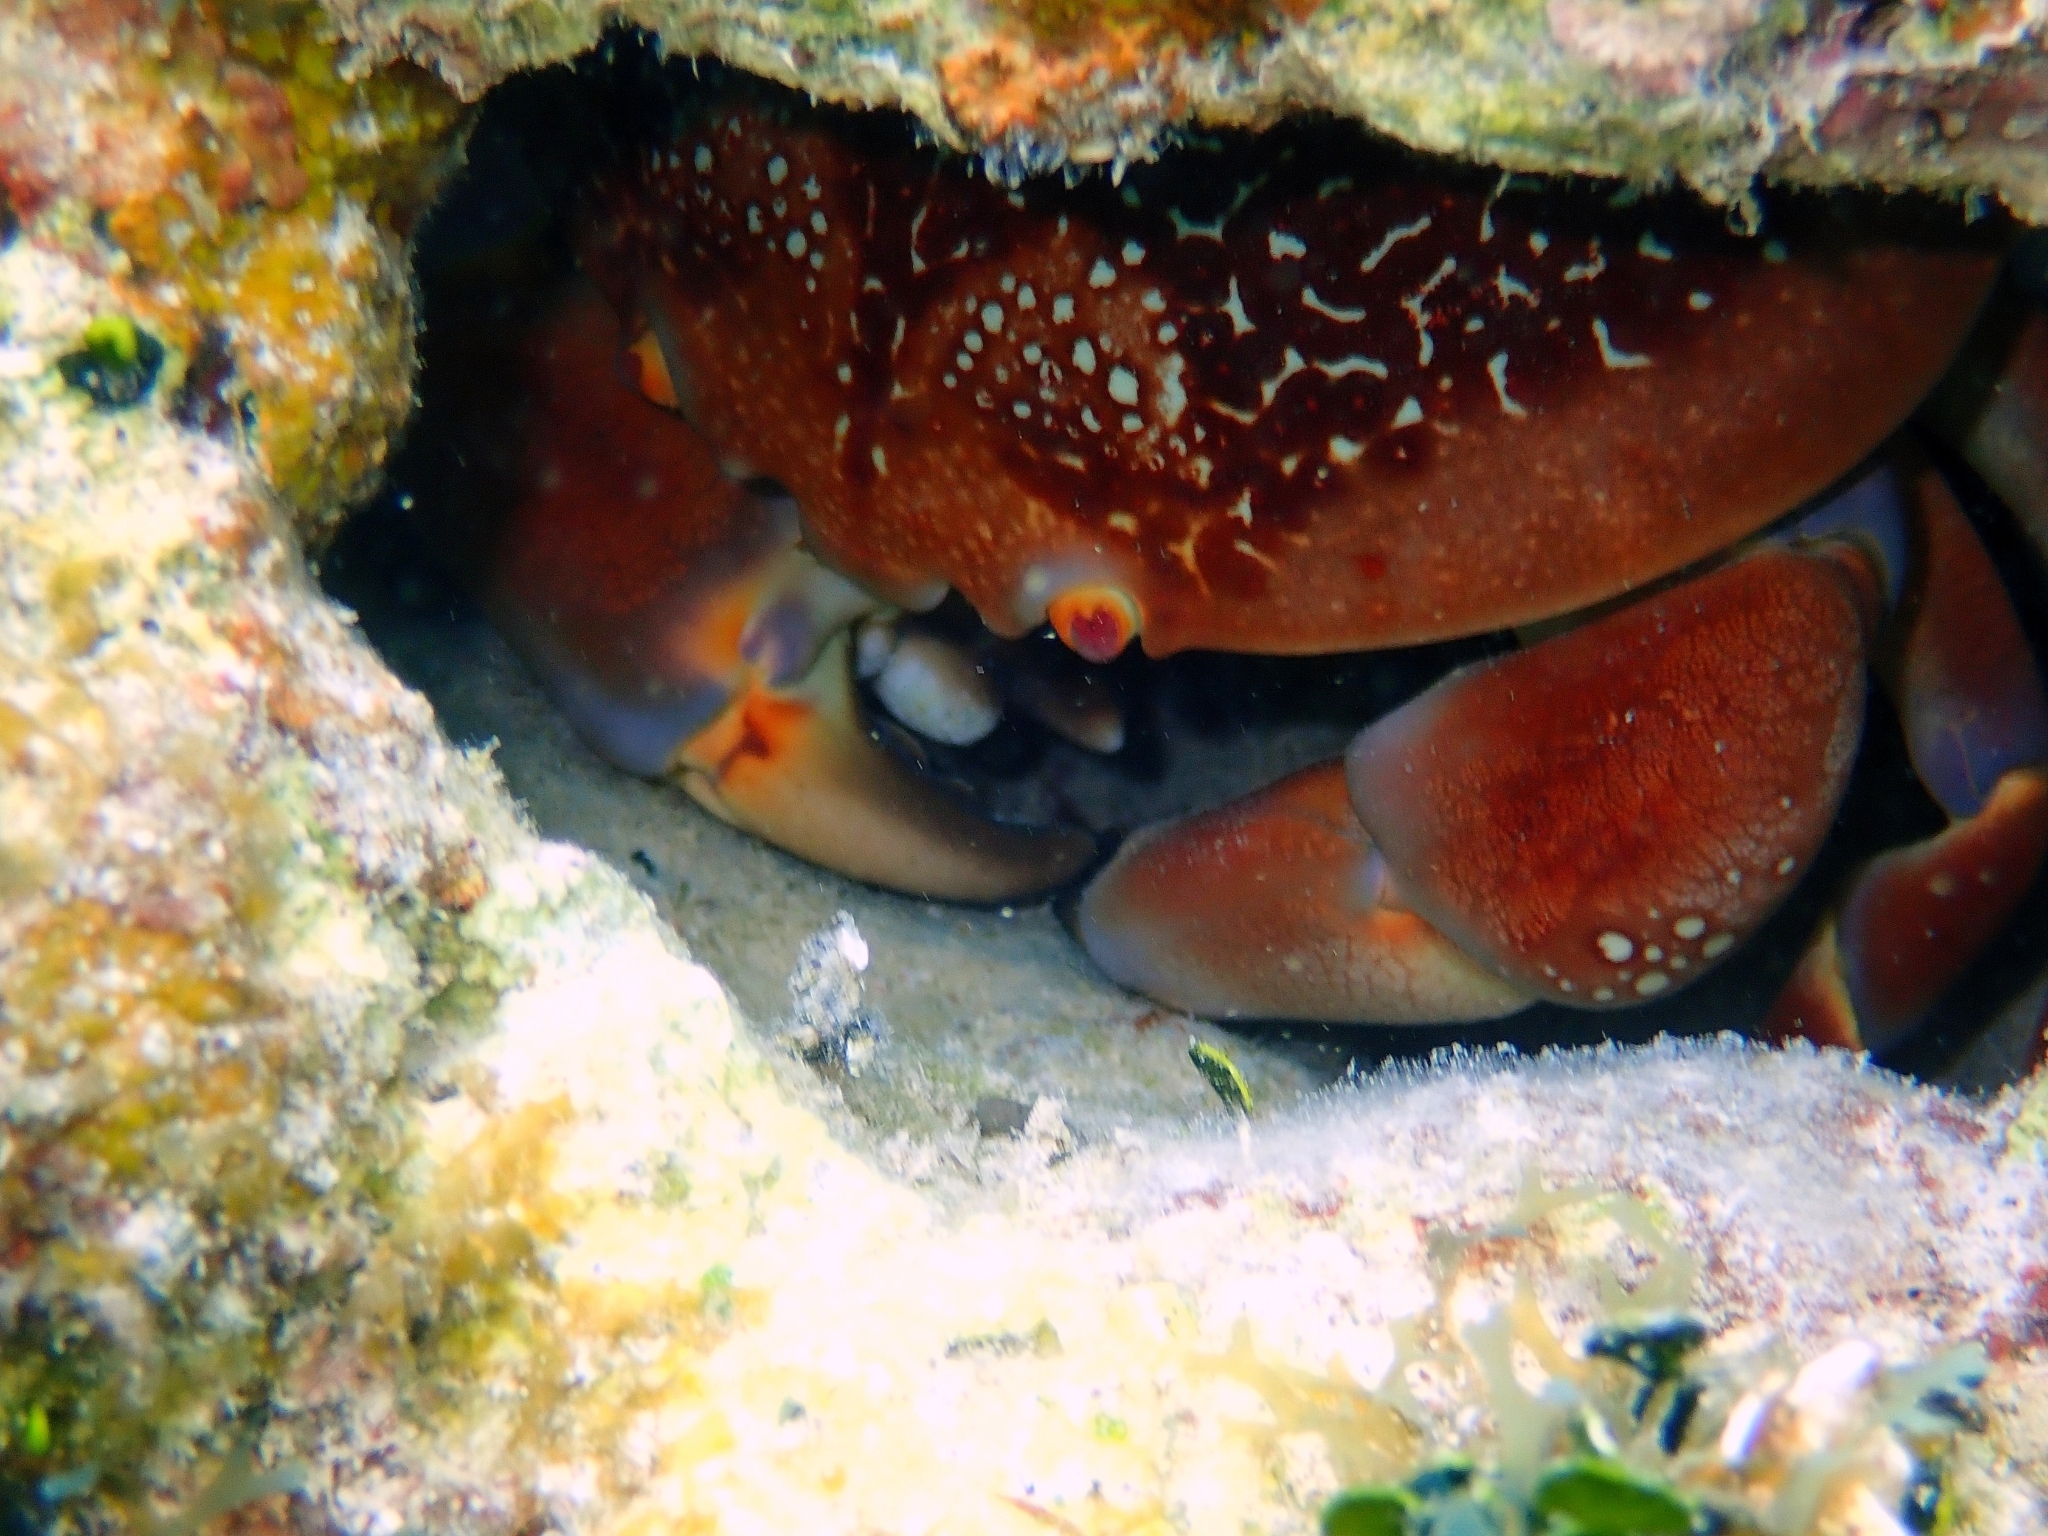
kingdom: Animalia
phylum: Arthropoda
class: Malacostraca
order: Decapoda
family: Carpiliidae
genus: Carpilius
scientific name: Carpilius corallinus
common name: Batwing coral crab
